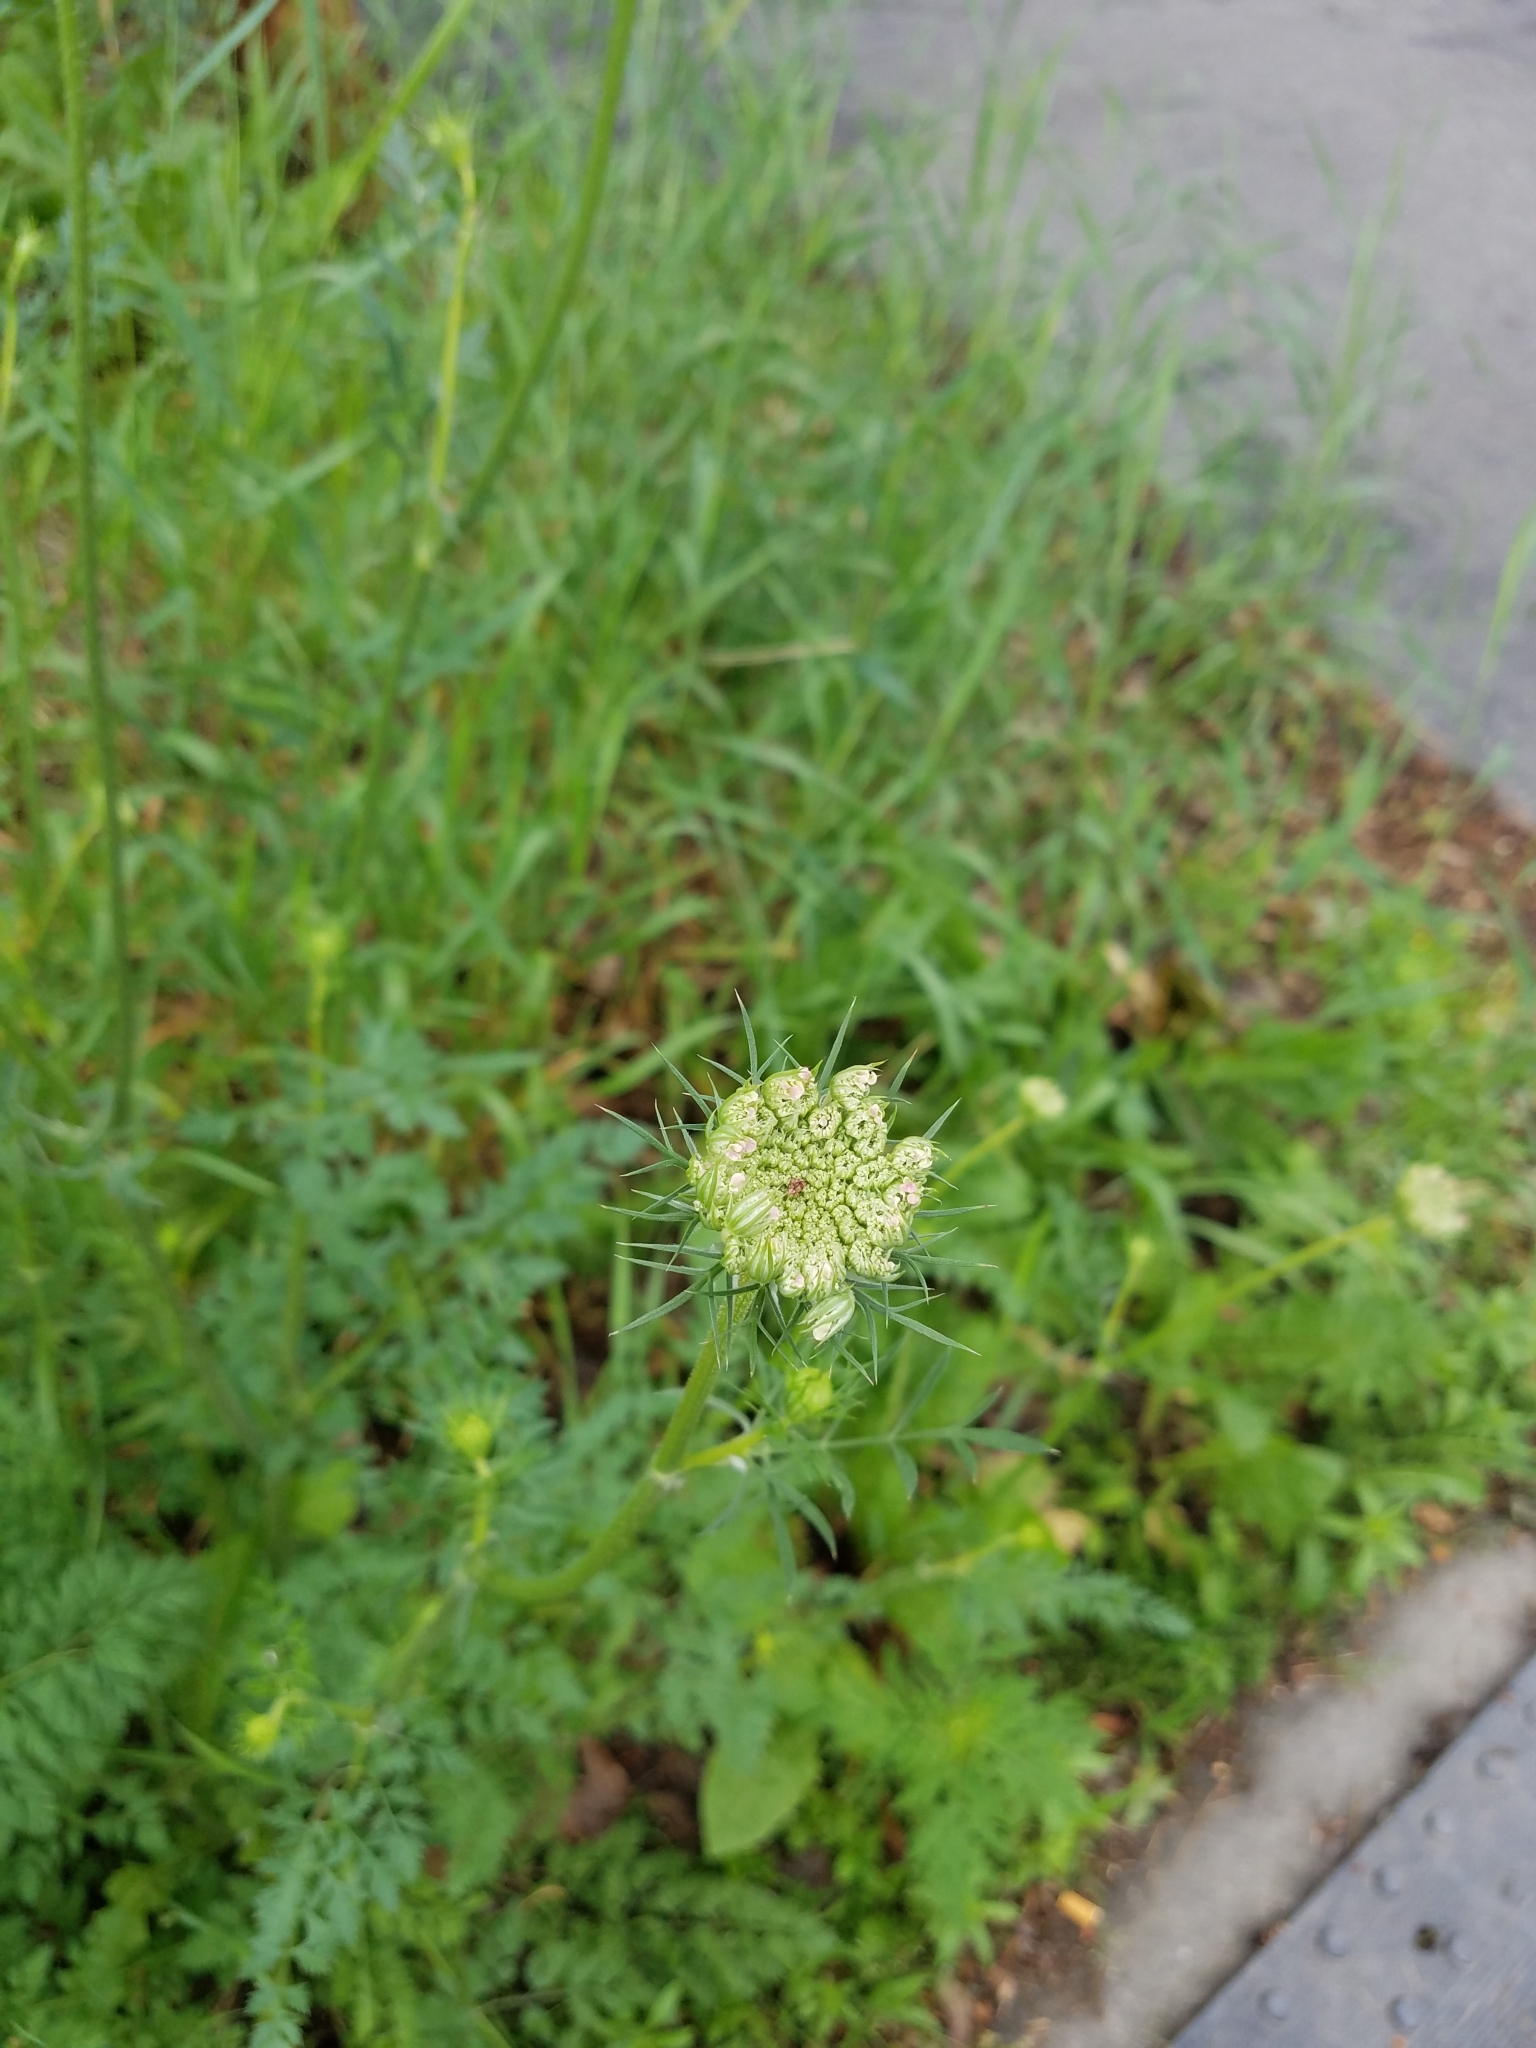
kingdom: Plantae
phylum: Tracheophyta
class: Magnoliopsida
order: Apiales
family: Apiaceae
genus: Daucus
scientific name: Daucus carota
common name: Wild carrot
